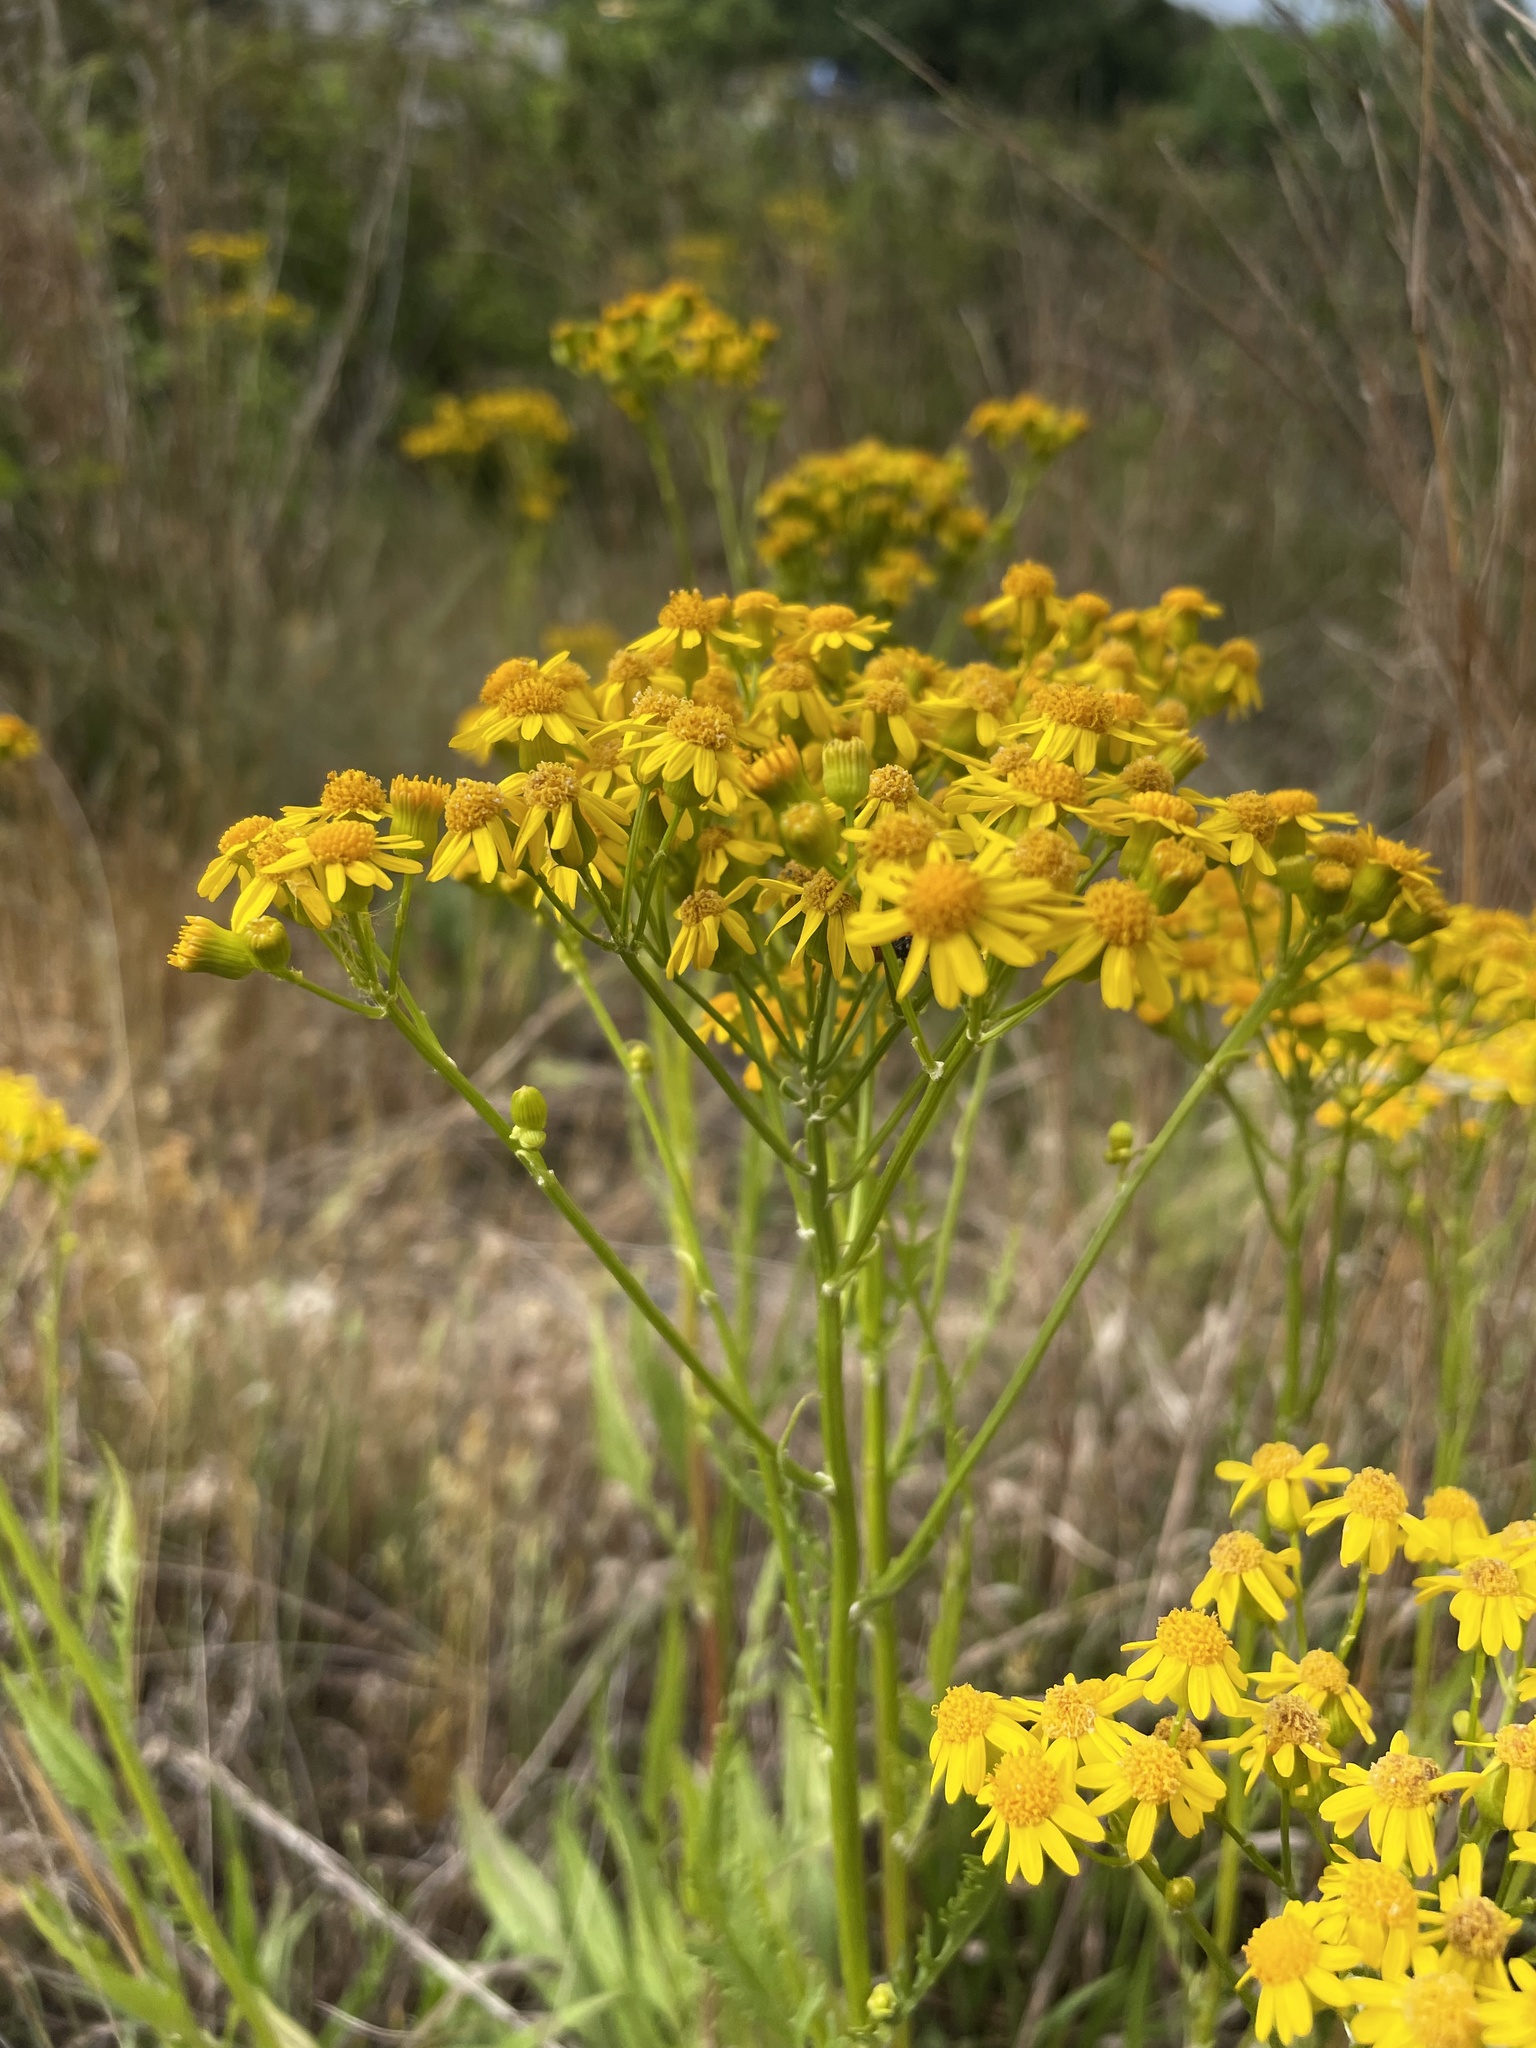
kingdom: Plantae
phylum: Tracheophyta
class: Magnoliopsida
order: Asterales
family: Asteraceae
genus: Packera
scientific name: Packera anonyma
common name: Small ragwort
